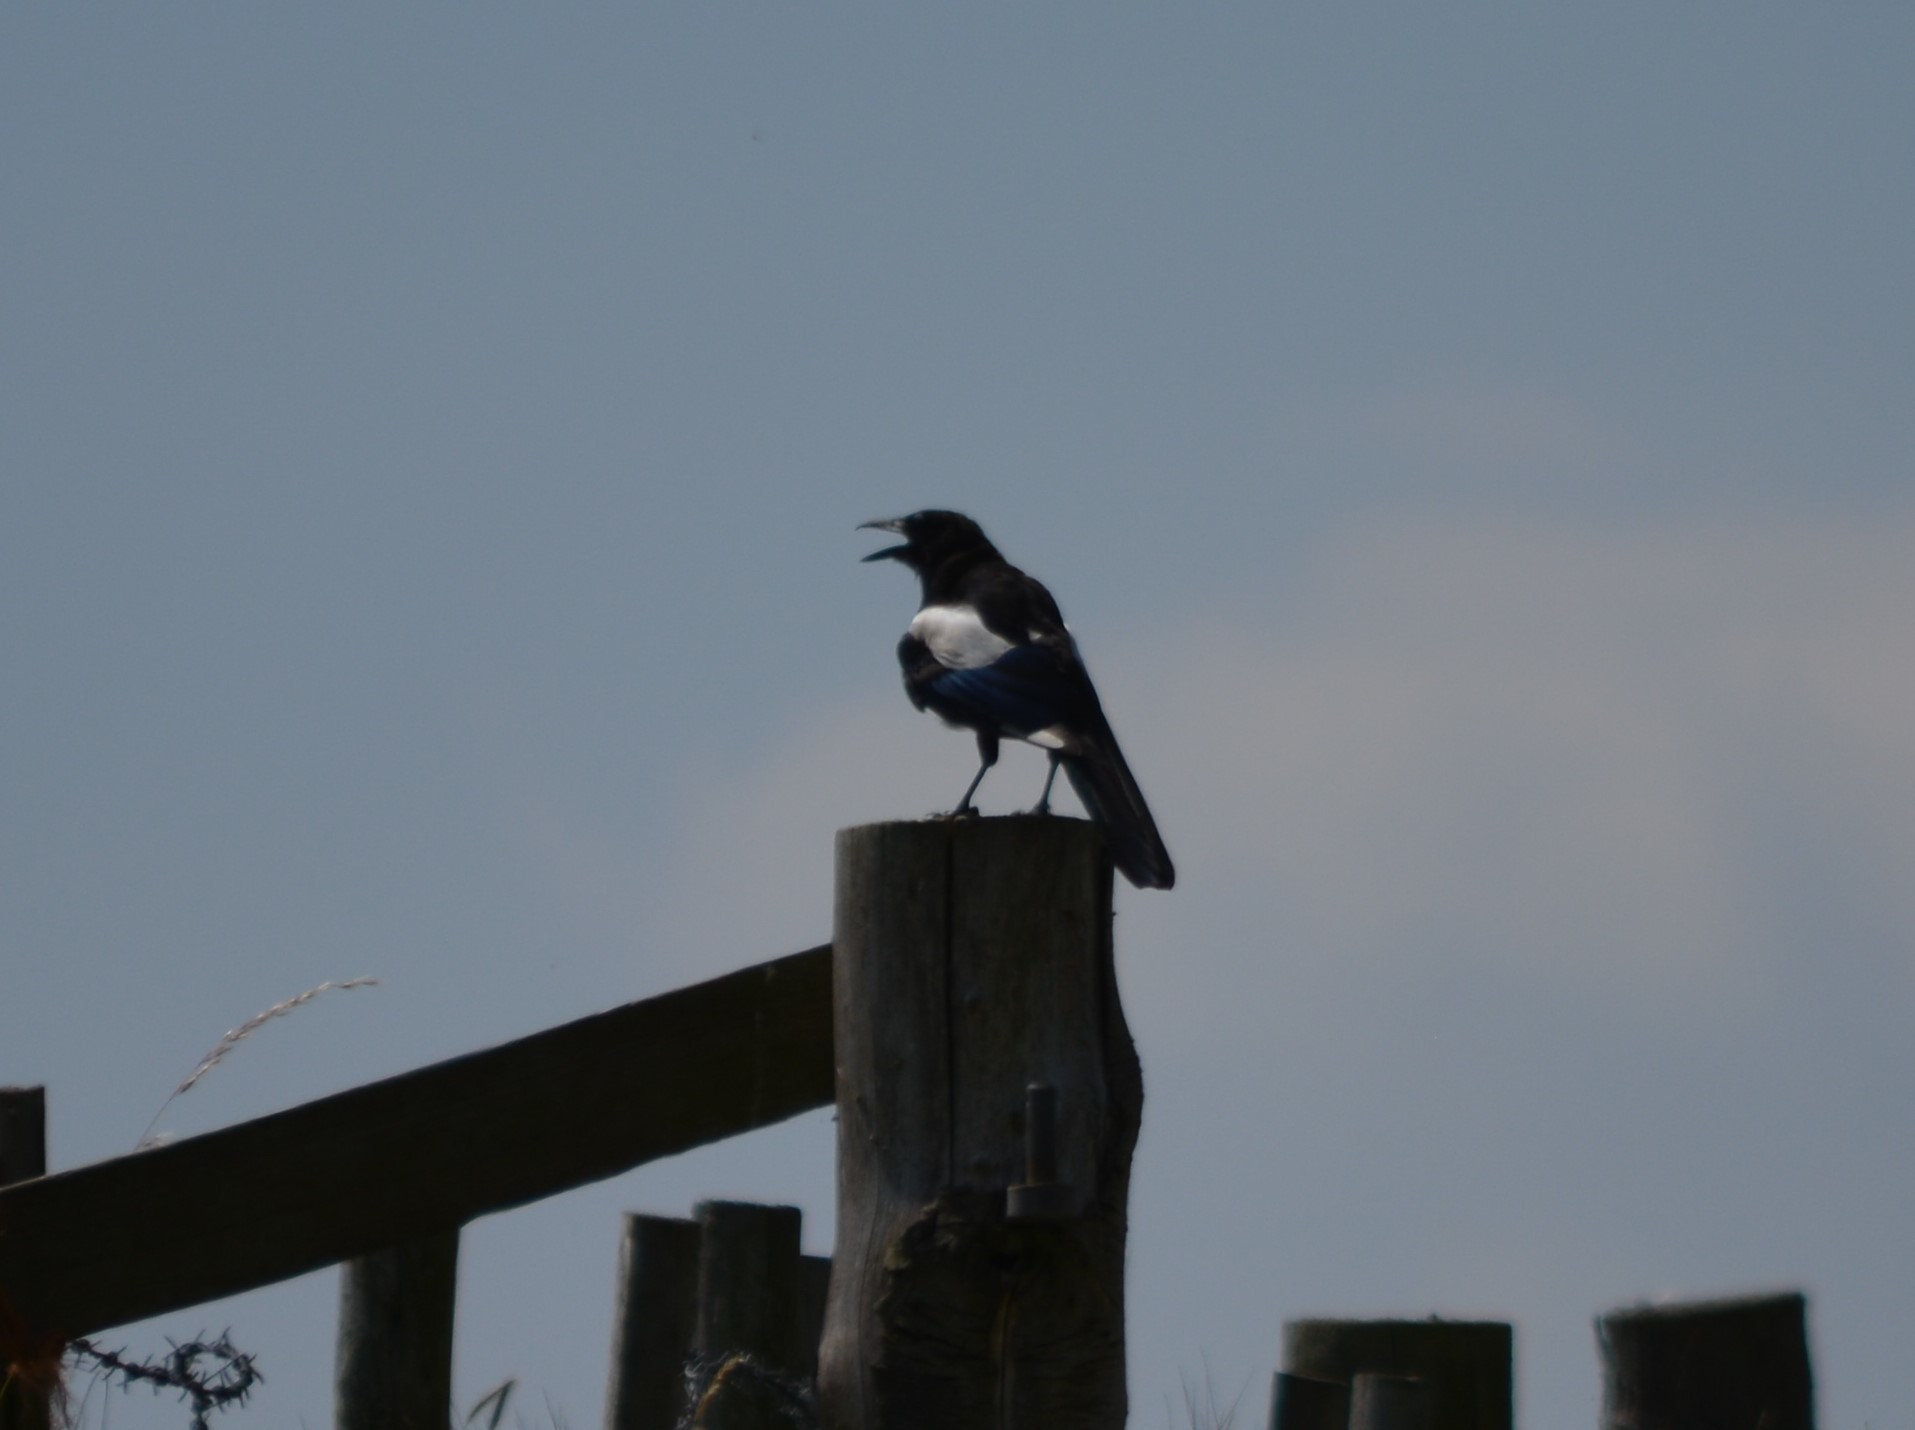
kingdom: Animalia
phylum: Chordata
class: Aves
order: Passeriformes
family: Corvidae
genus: Pica
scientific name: Pica pica
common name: Eurasian magpie
